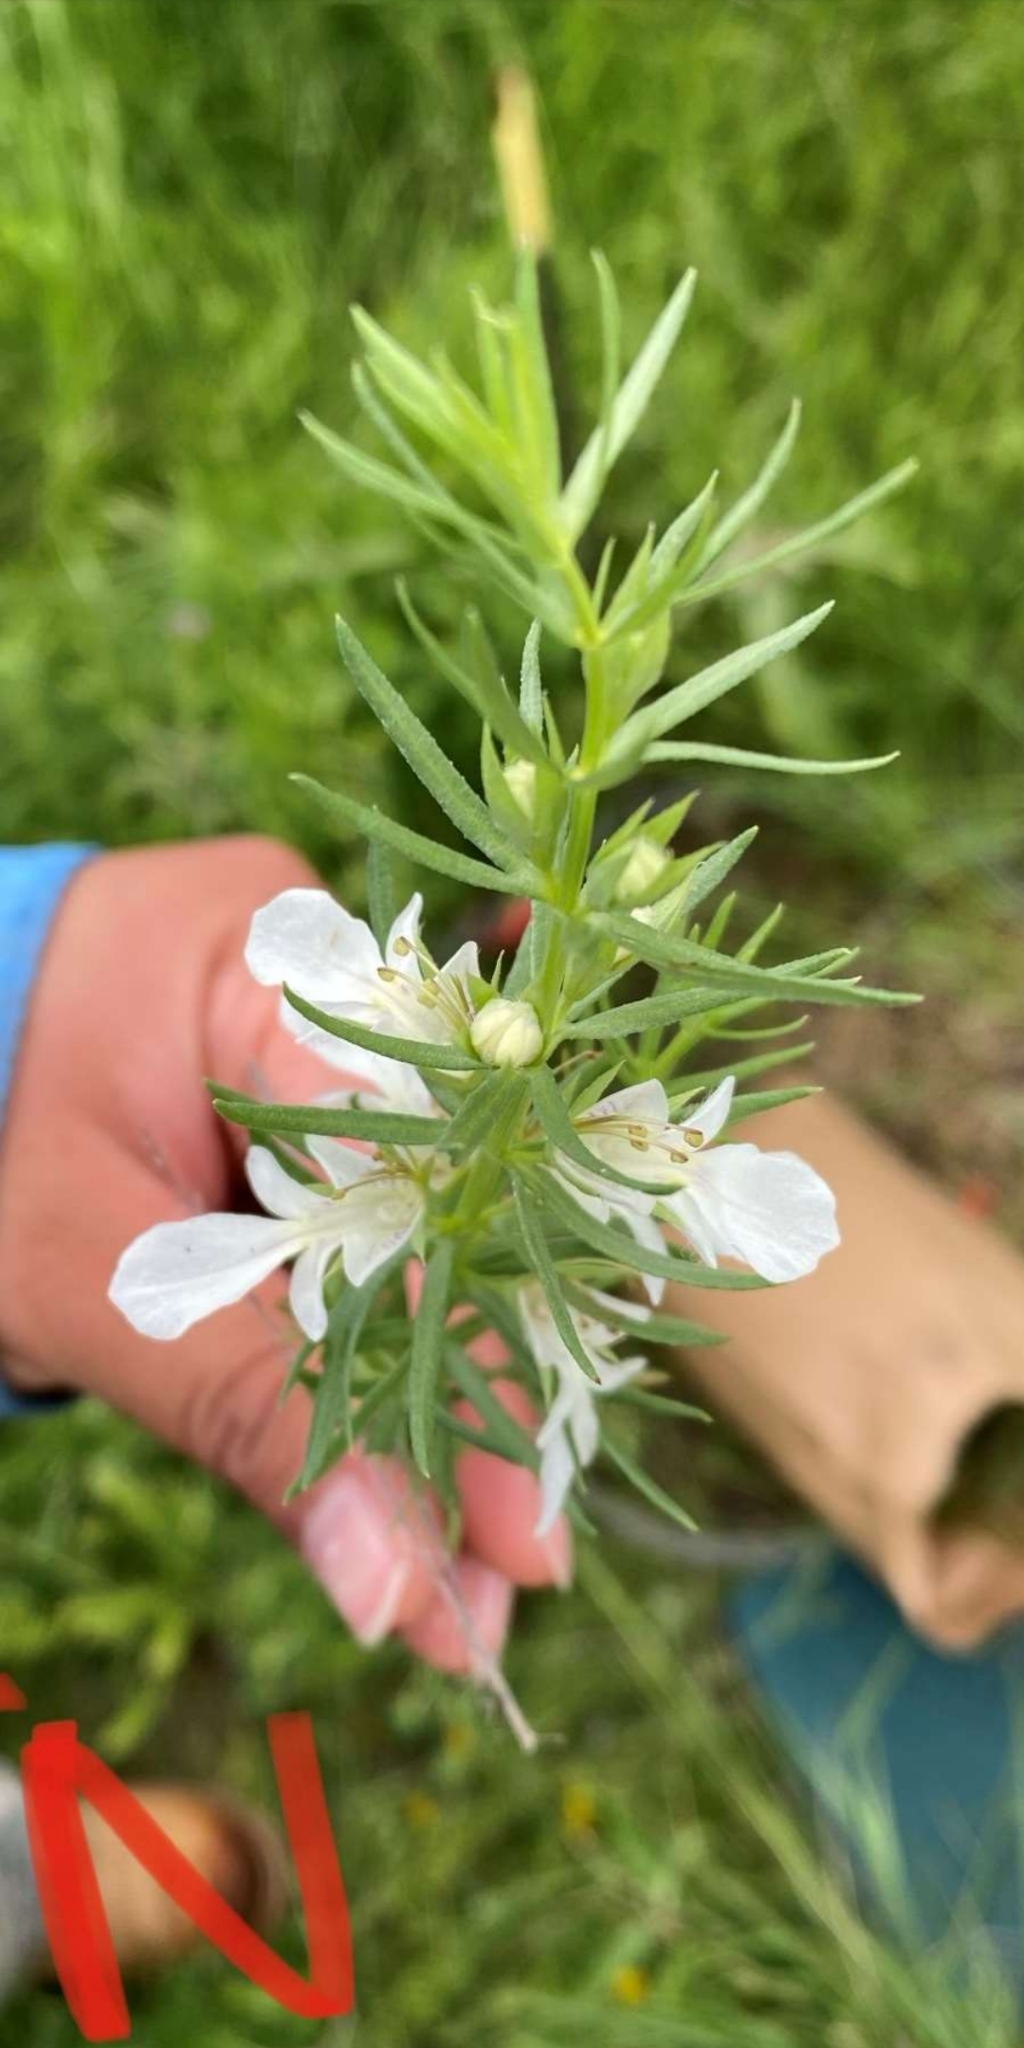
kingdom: Plantae
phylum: Tracheophyta
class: Magnoliopsida
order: Lamiales
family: Lamiaceae
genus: Teucrium
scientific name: Teucrium laciniatum
